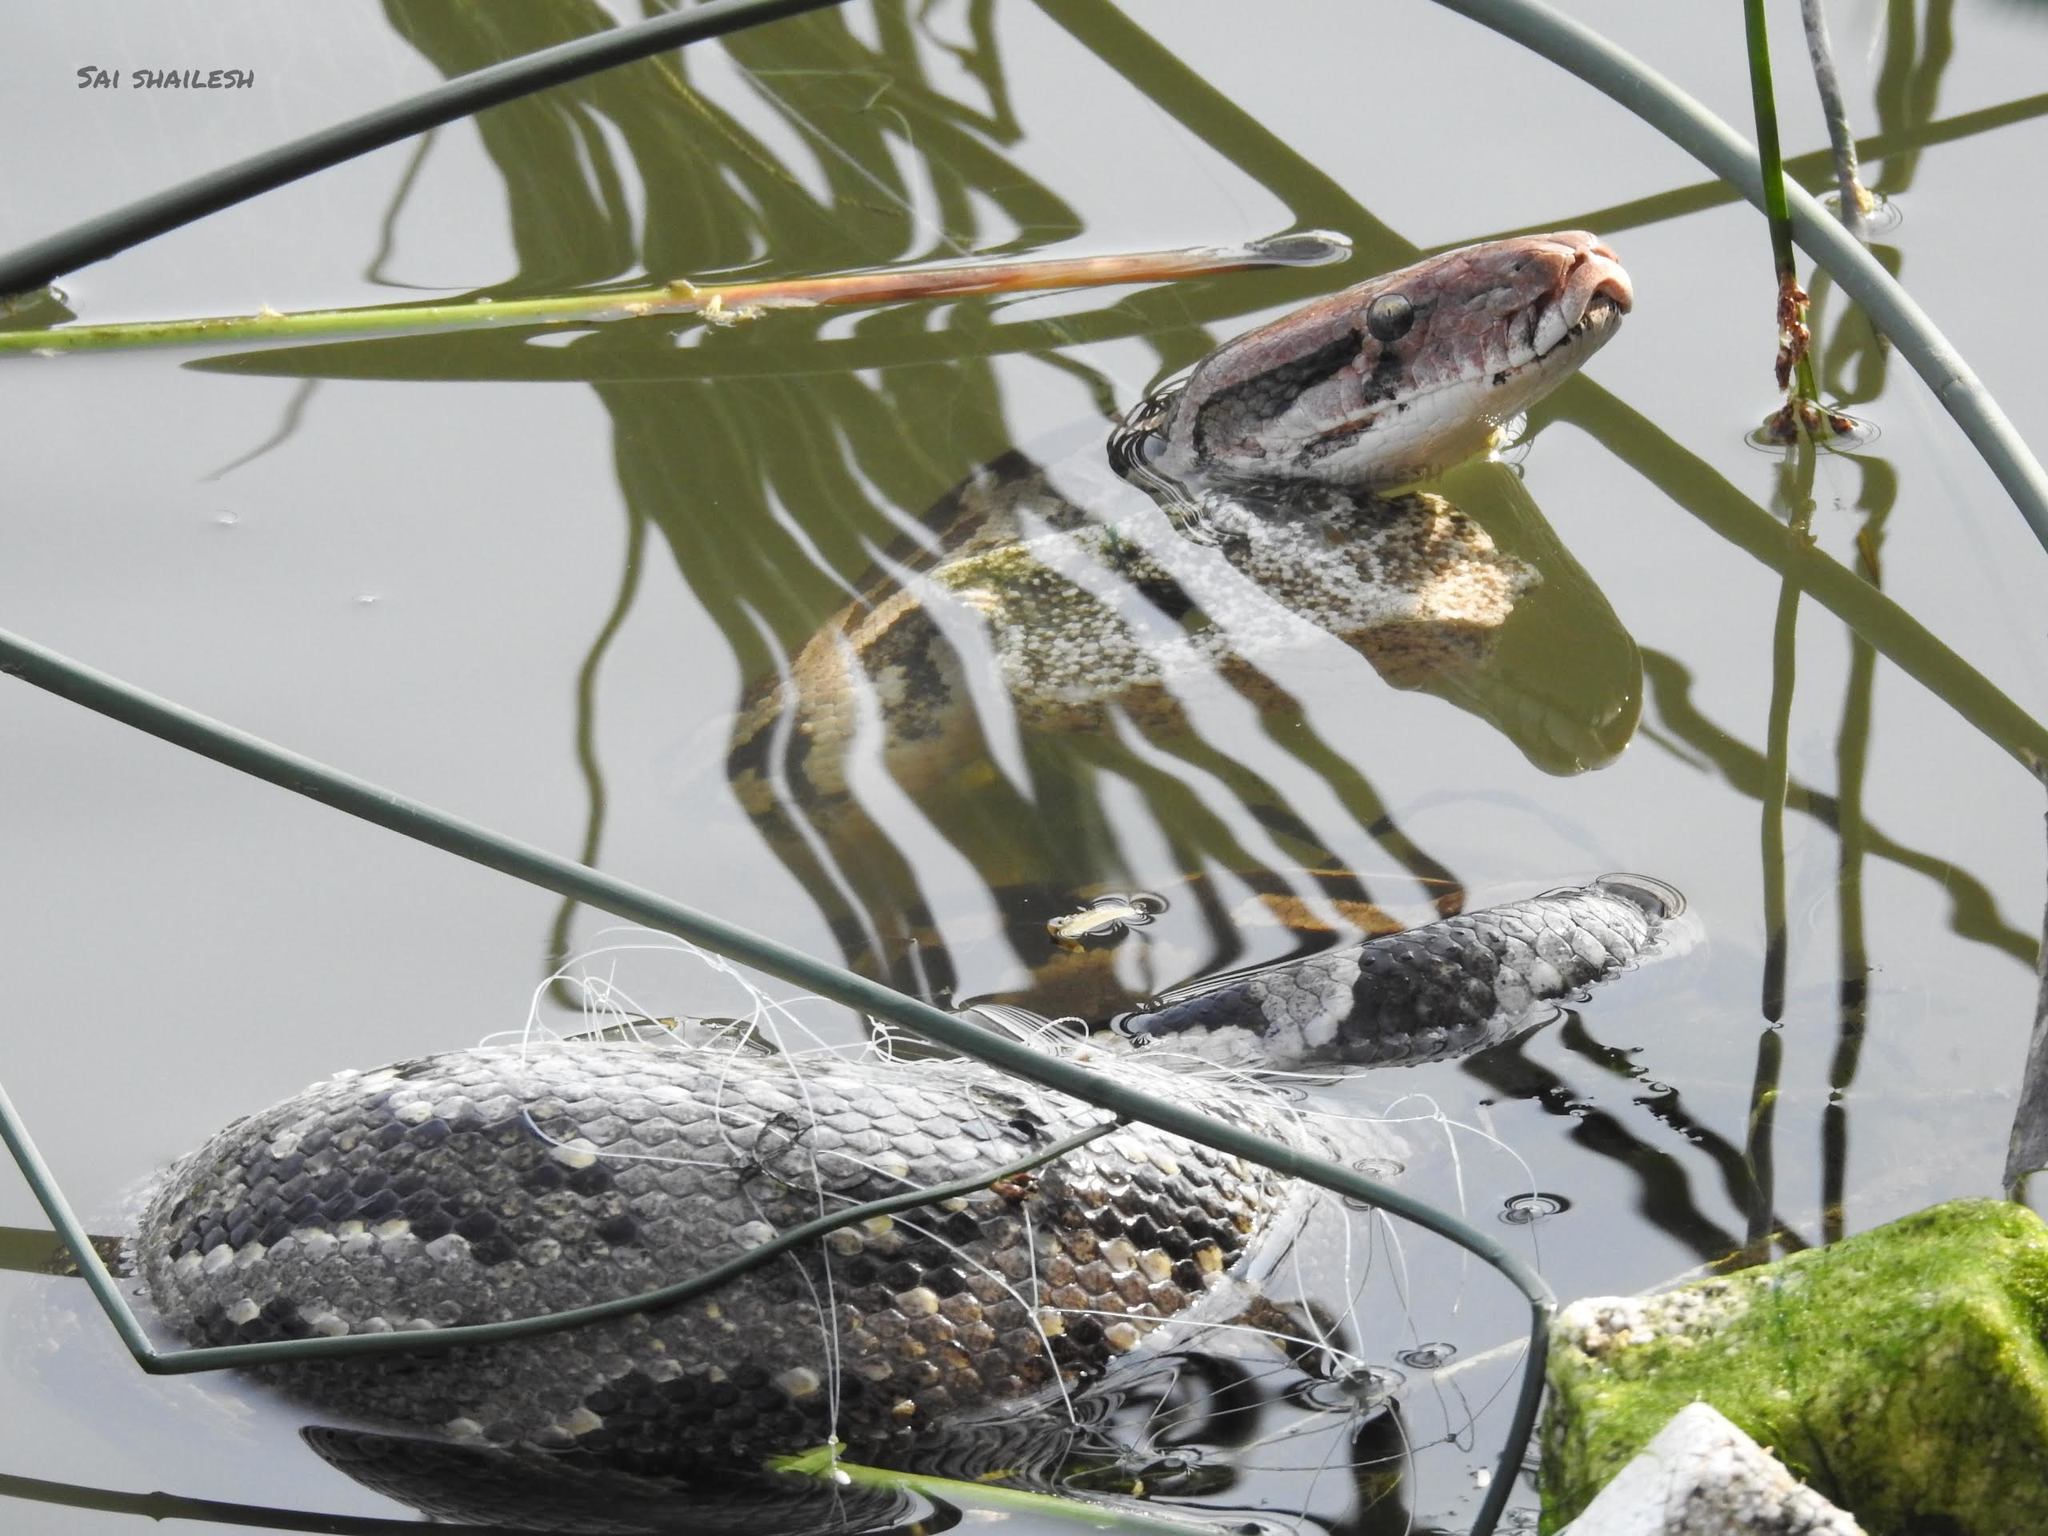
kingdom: Animalia
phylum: Chordata
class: Squamata
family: Pythonidae
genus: Python
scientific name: Python molurus
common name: Indian rock python
